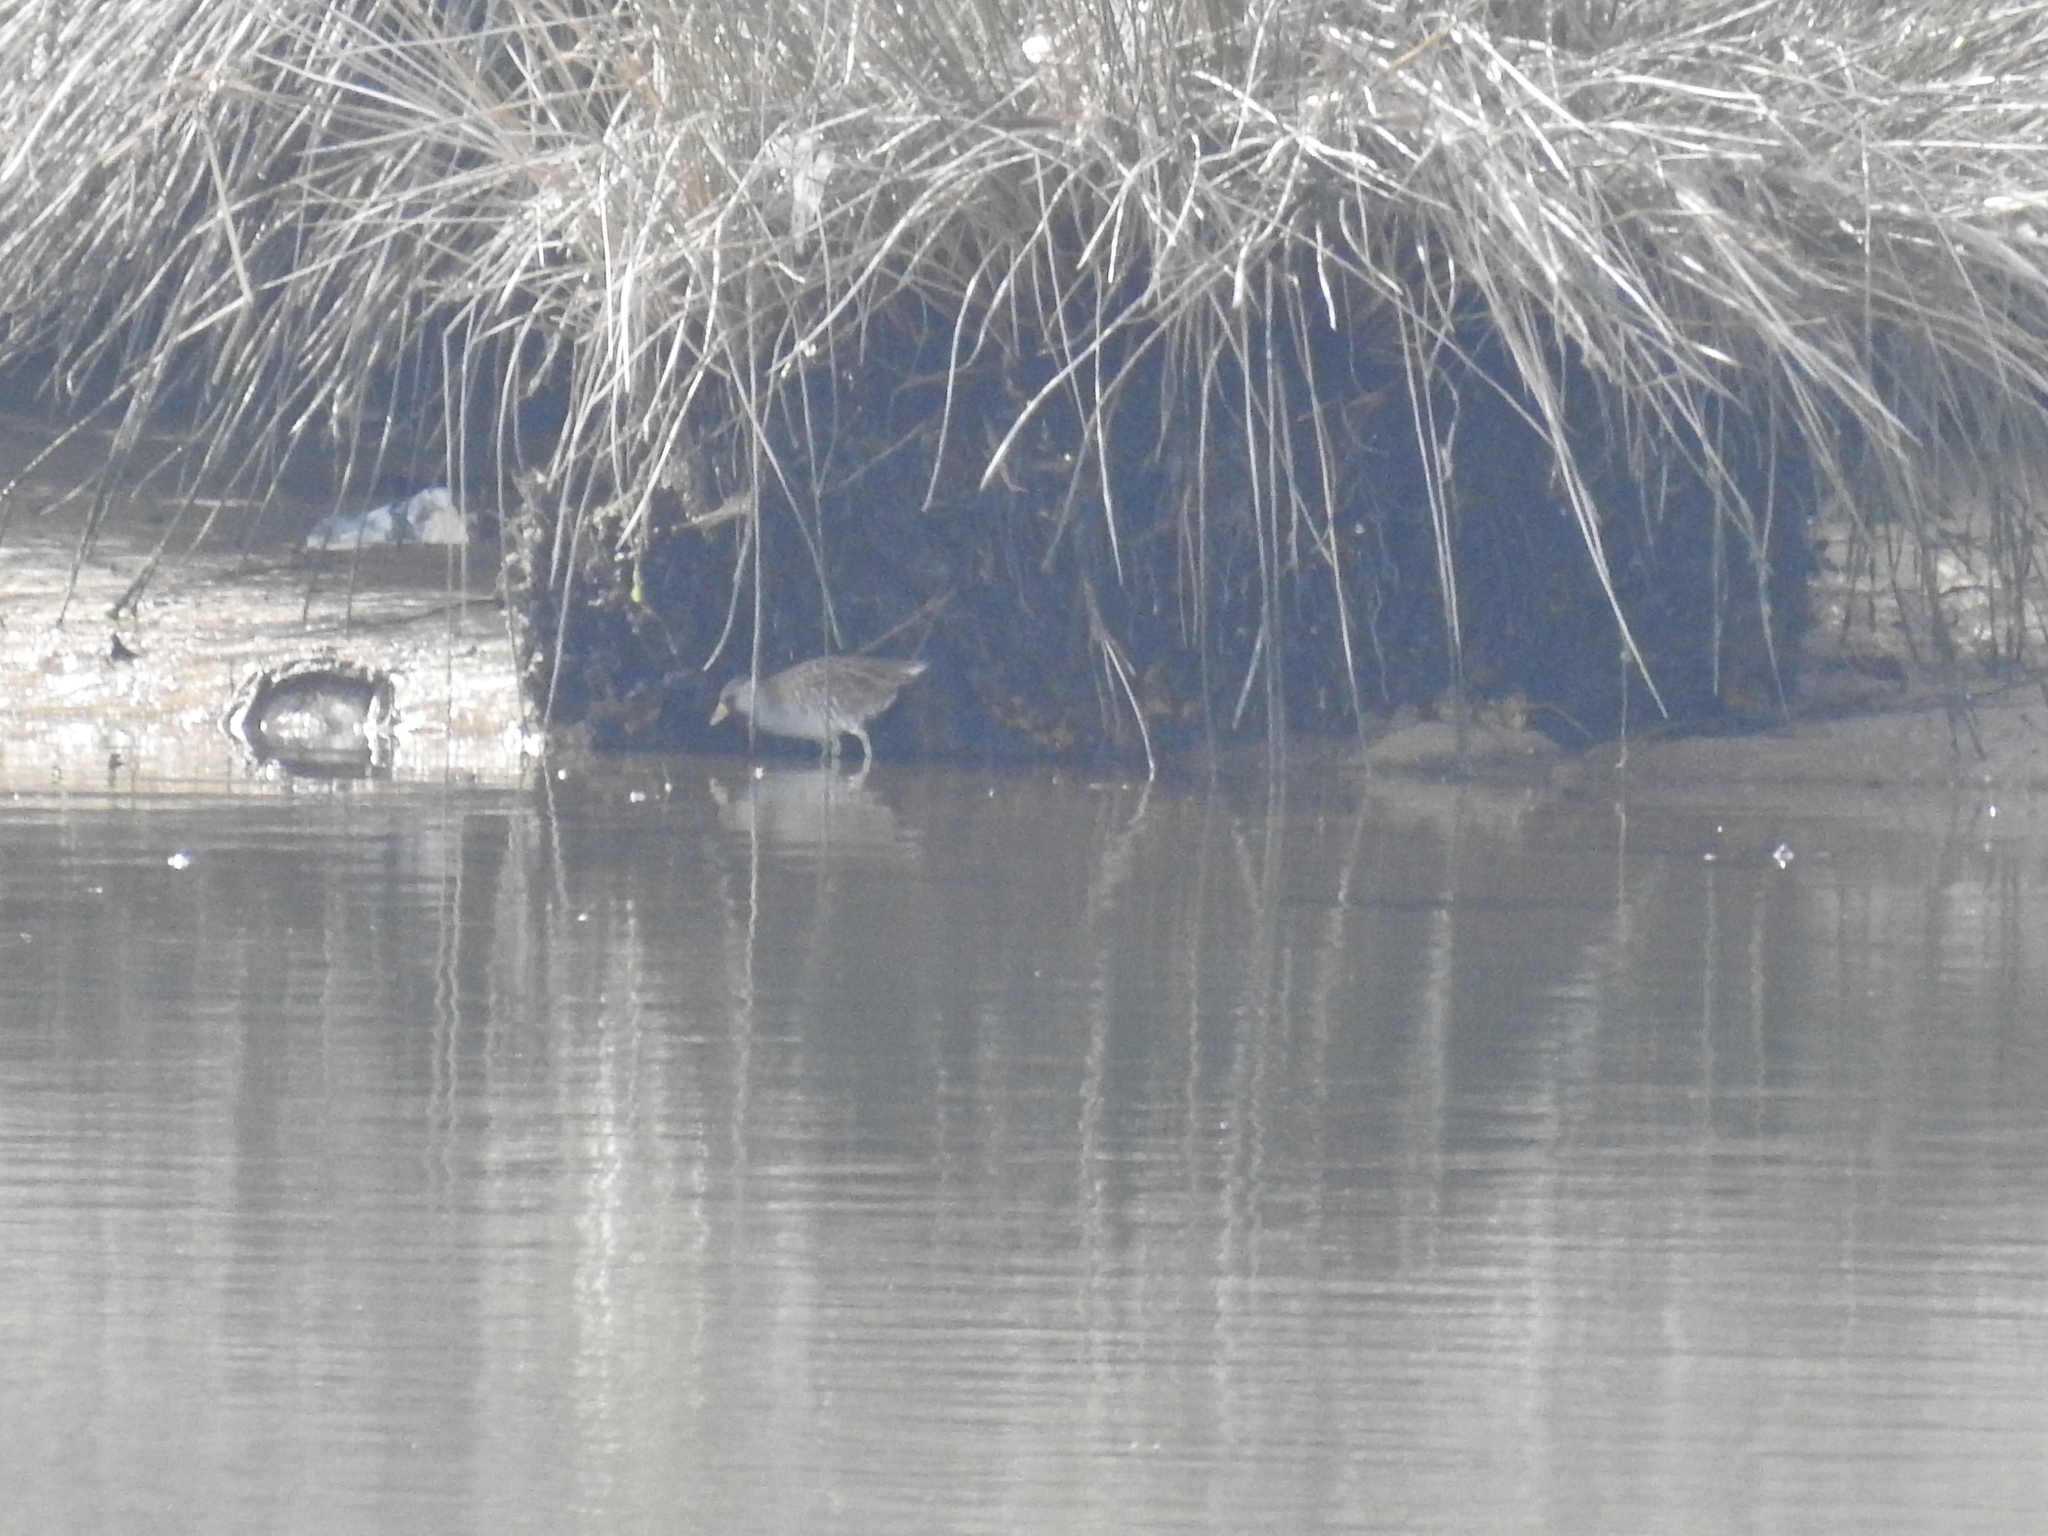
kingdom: Animalia
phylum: Chordata
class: Aves
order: Gruiformes
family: Rallidae
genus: Porzana
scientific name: Porzana carolina
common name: Sora
